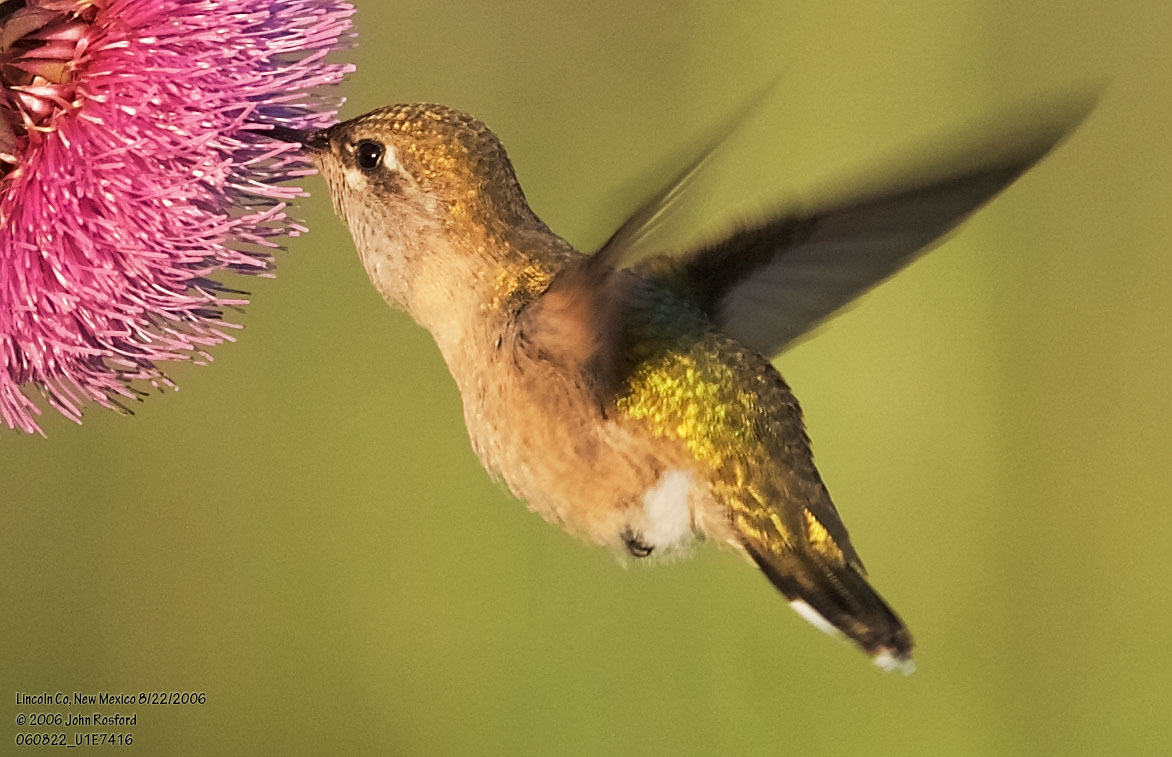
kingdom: Animalia
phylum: Chordata
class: Aves
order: Apodiformes
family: Trochilidae
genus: Archilochus
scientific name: Archilochus alexandri
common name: Black-chinned hummingbird
